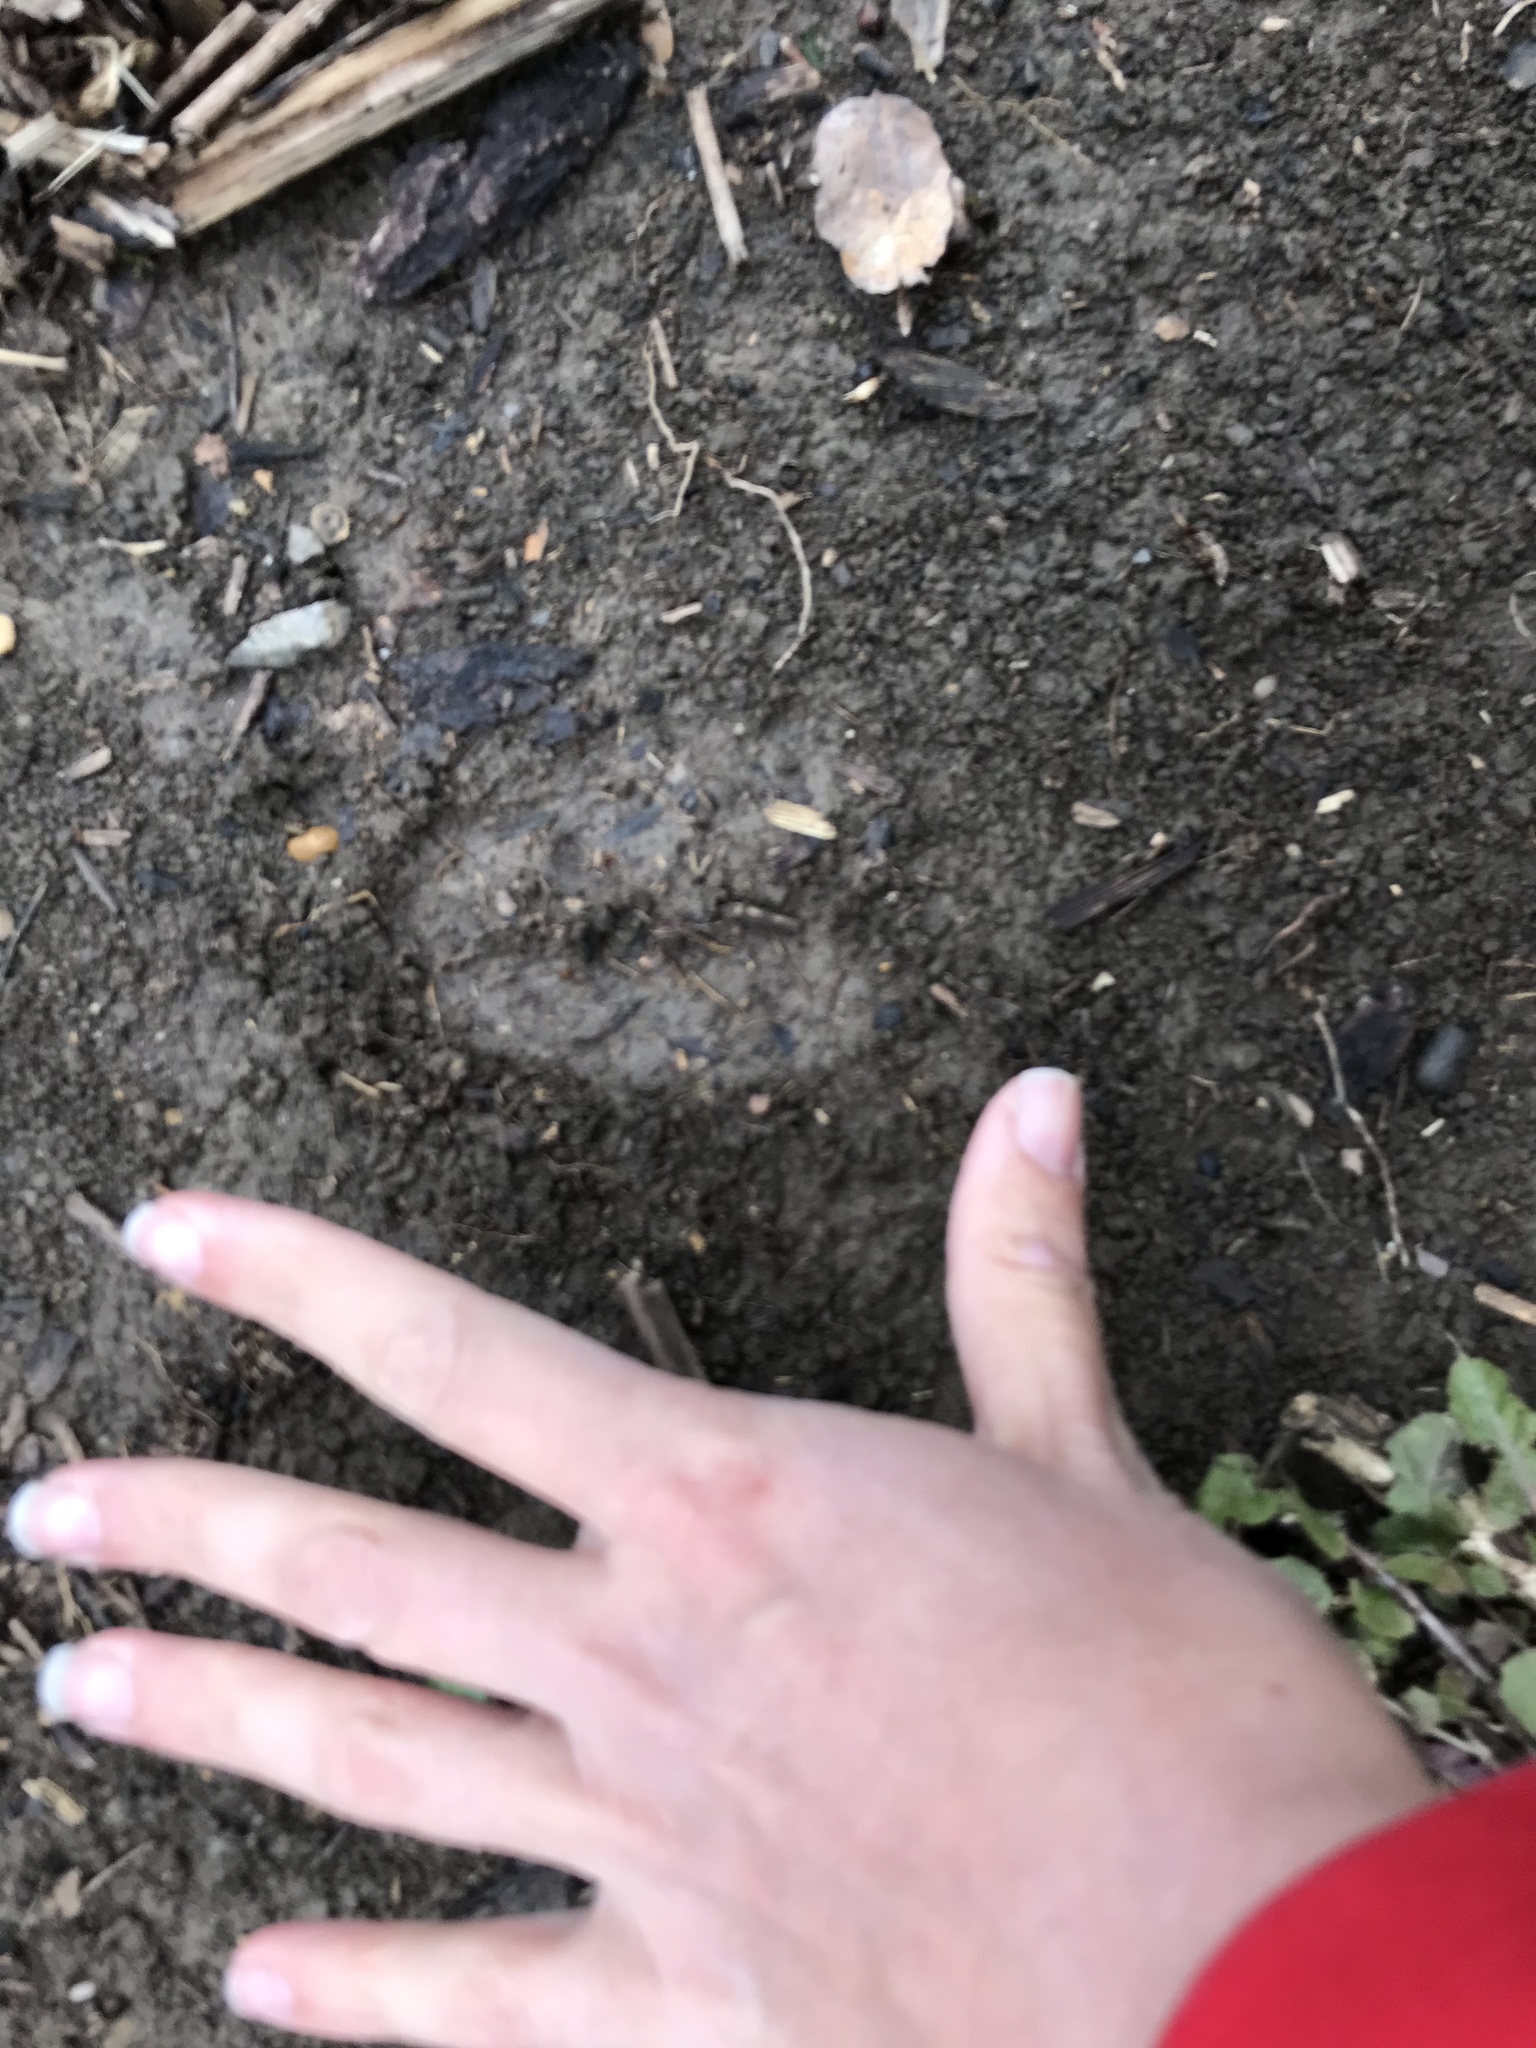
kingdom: Animalia
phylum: Chordata
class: Mammalia
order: Artiodactyla
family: Cervidae
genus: Odocoileus
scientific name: Odocoileus virginianus
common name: White-tailed deer
